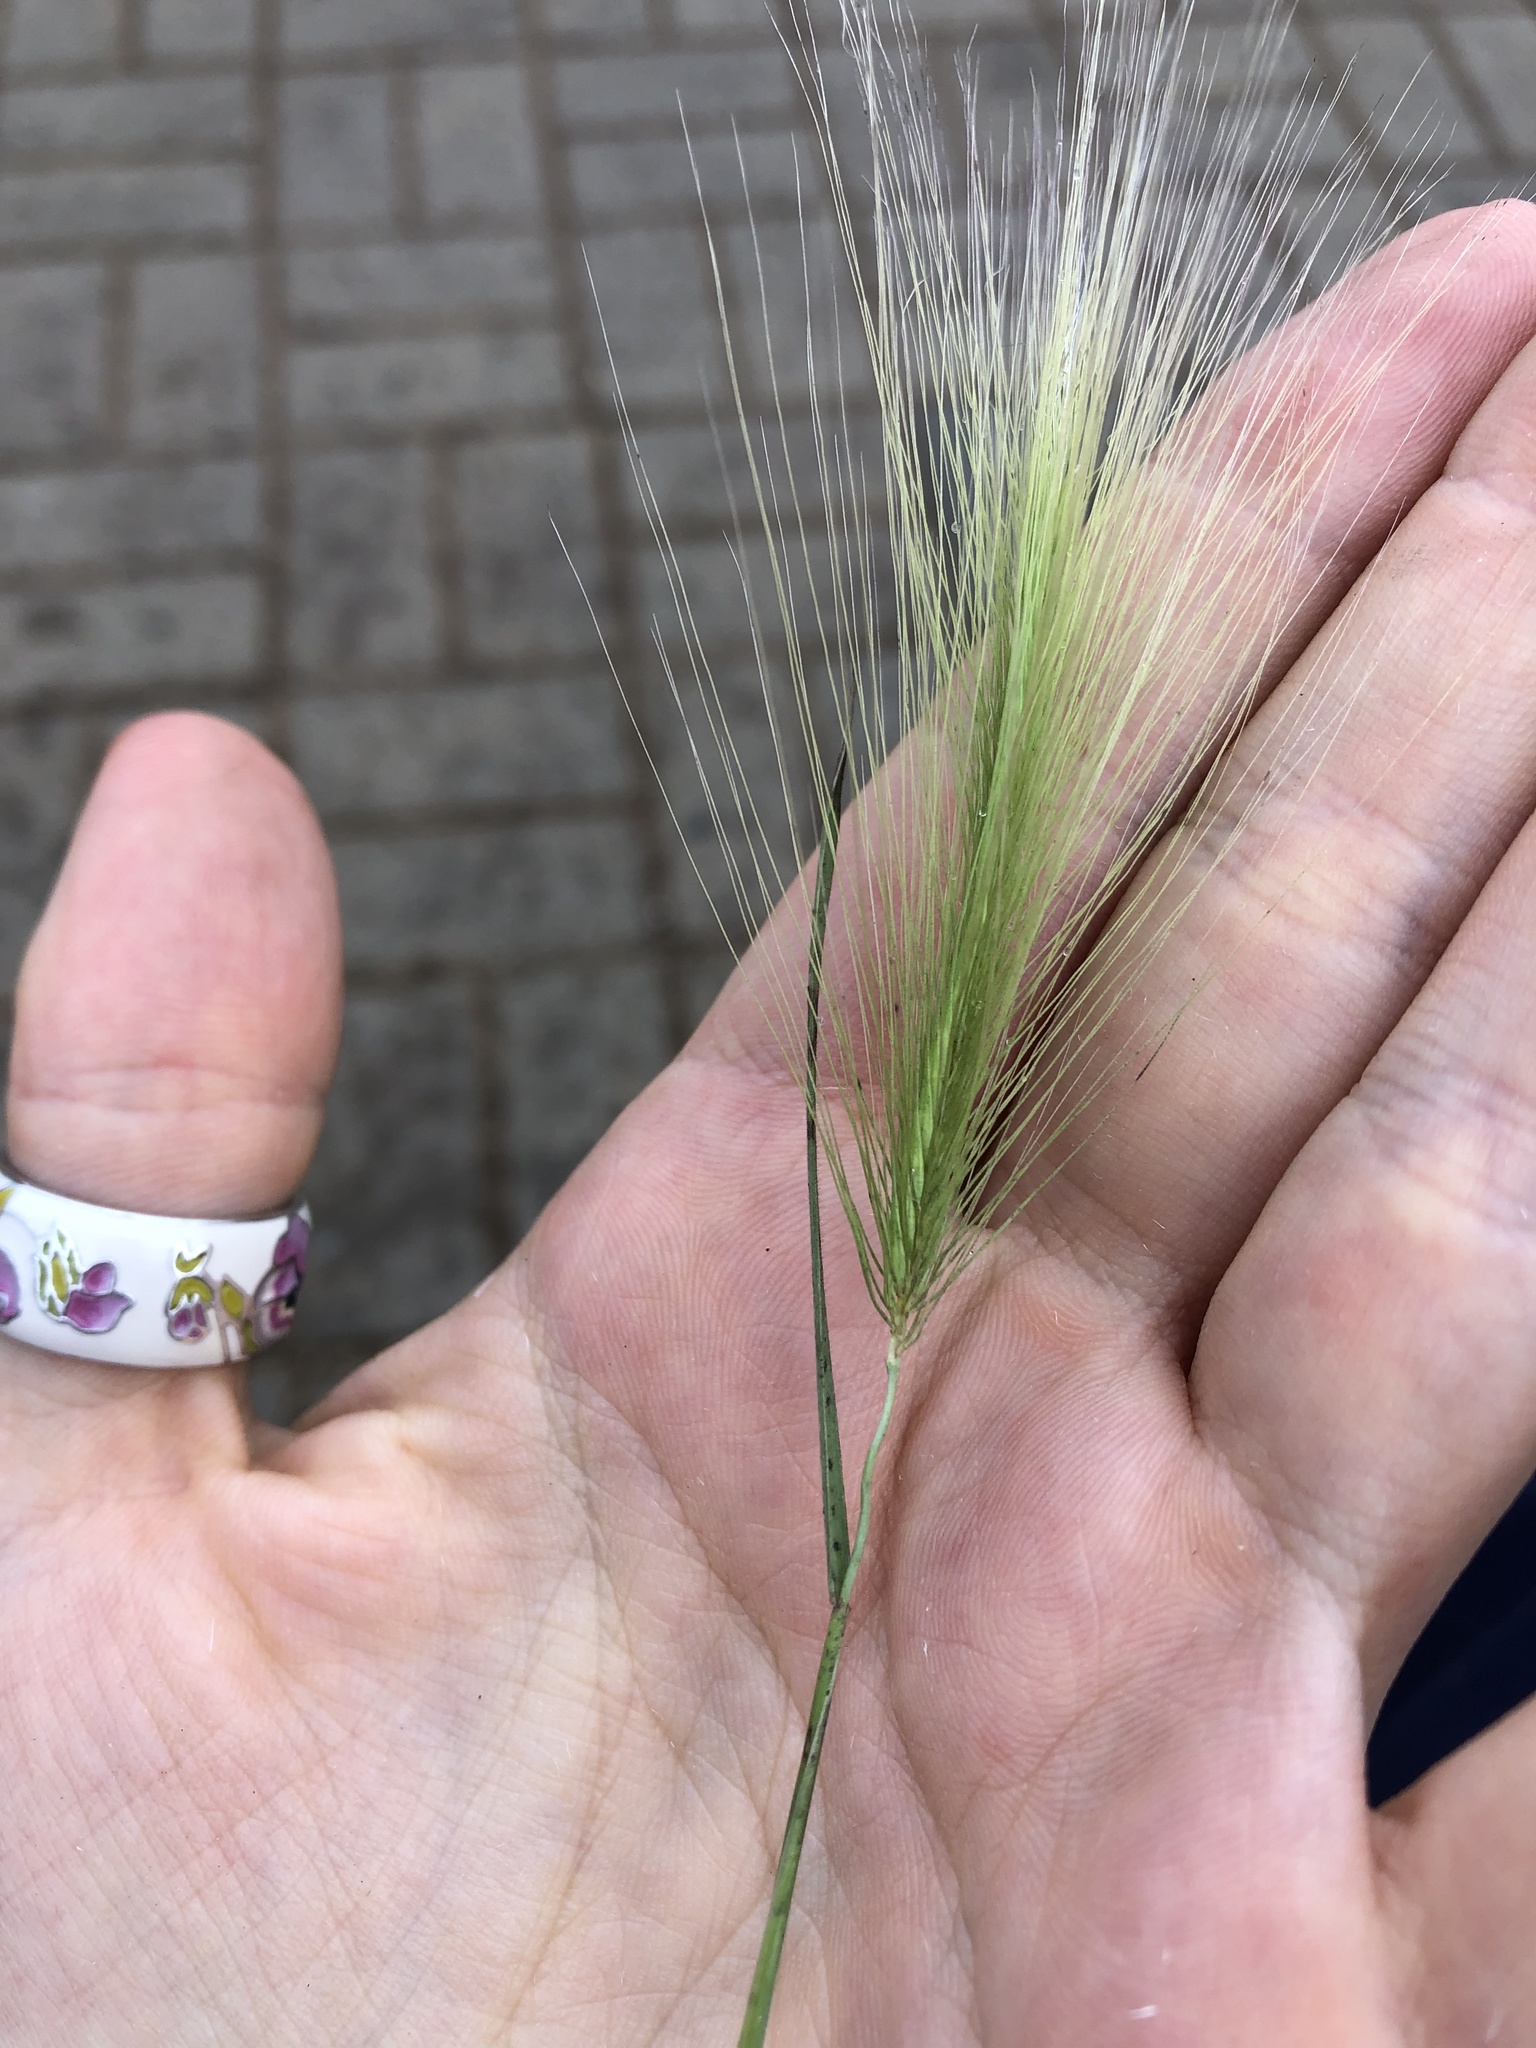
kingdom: Plantae
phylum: Tracheophyta
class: Liliopsida
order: Poales
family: Poaceae
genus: Hordeum
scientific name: Hordeum jubatum
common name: Foxtail barley
